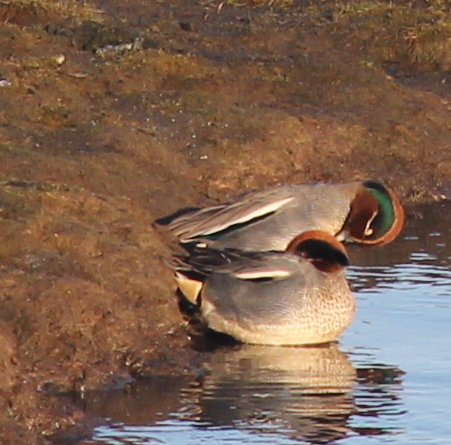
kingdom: Animalia
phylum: Chordata
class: Aves
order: Anseriformes
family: Anatidae
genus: Anas
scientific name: Anas crecca
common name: Eurasian teal
